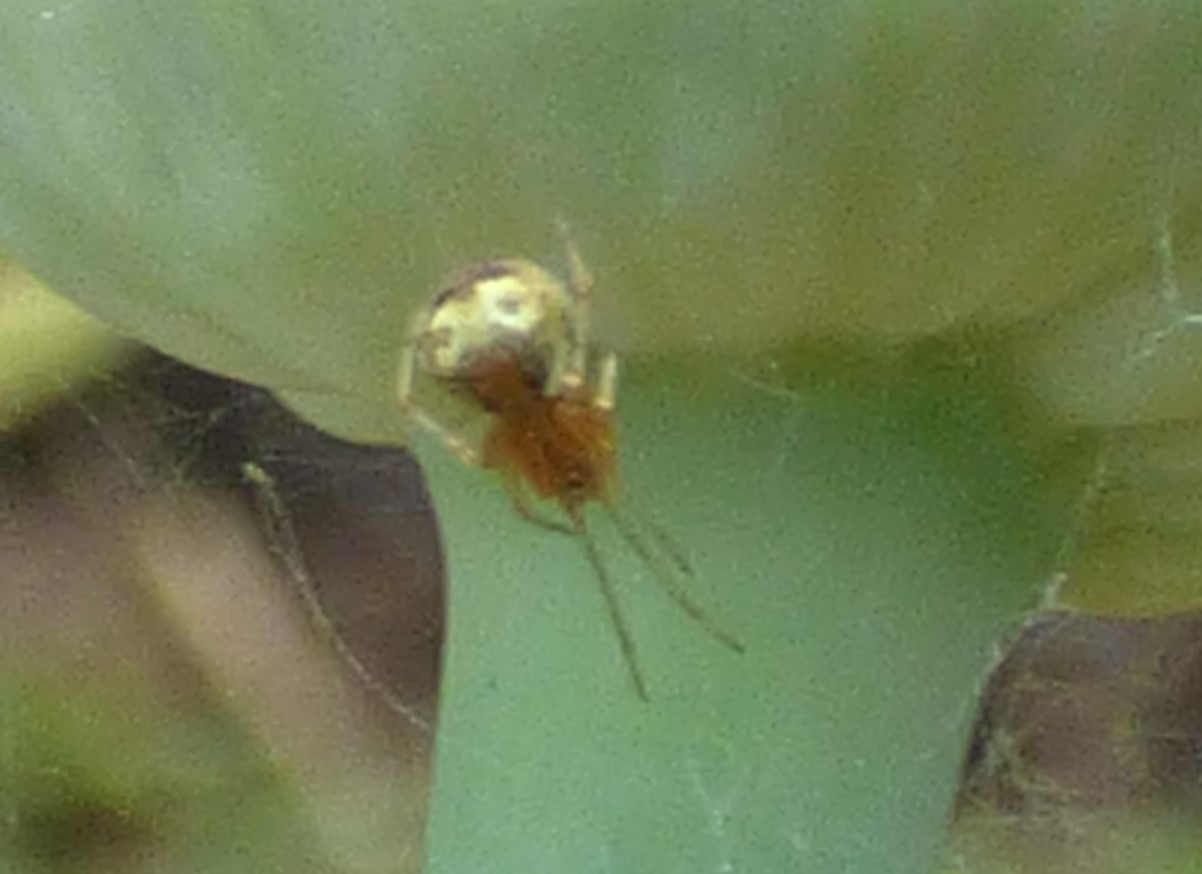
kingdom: Animalia
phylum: Arthropoda
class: Arachnida
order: Araneae
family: Theridiidae
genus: Theridion
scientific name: Theridion flavonotatum
